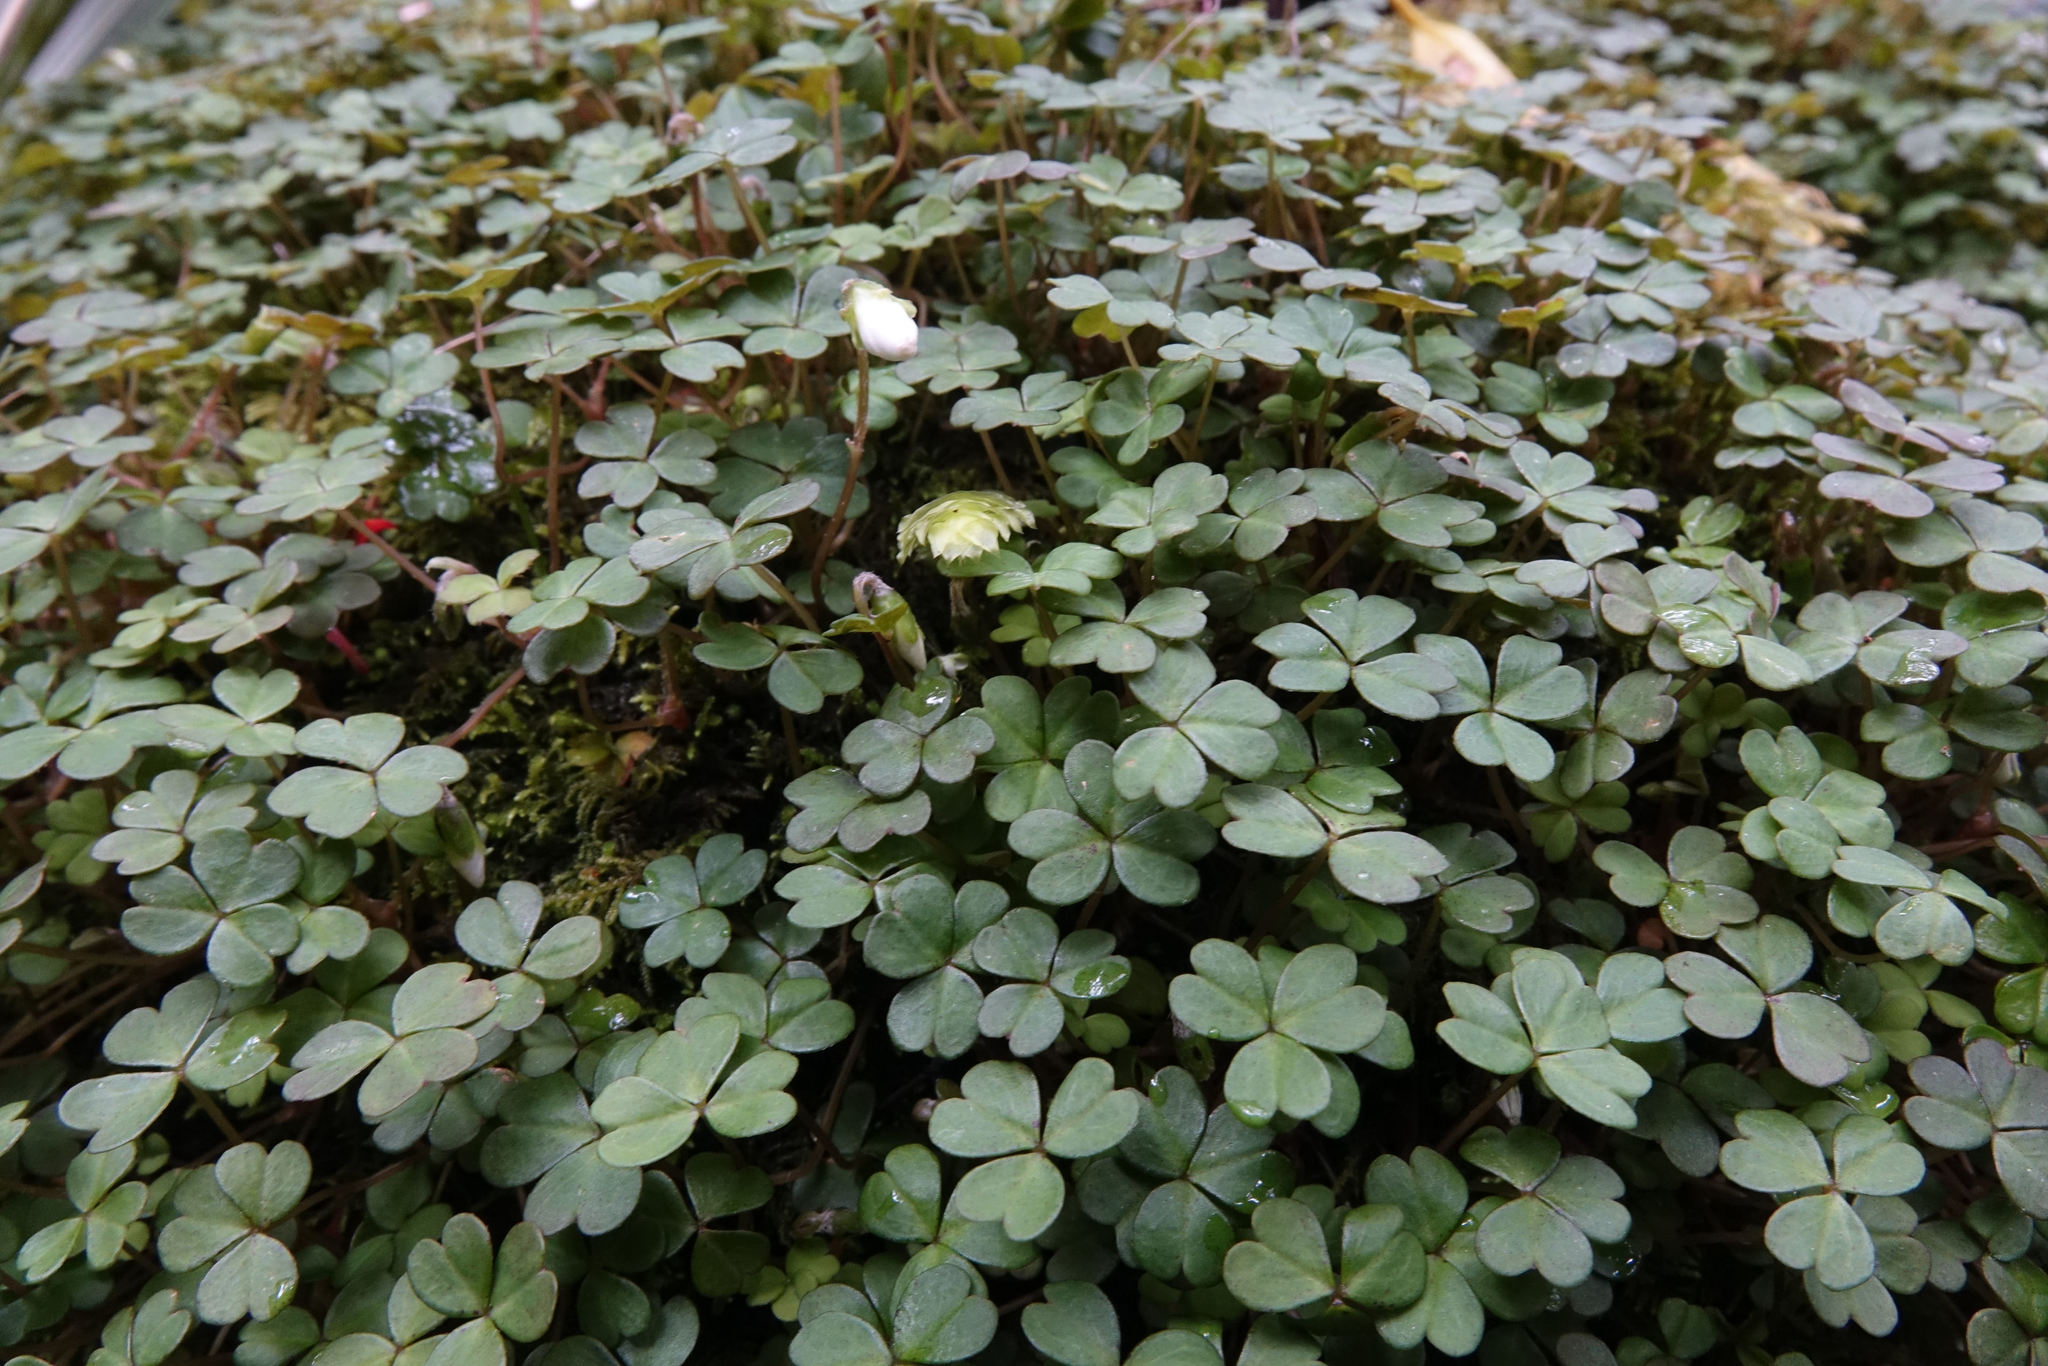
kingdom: Plantae
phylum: Tracheophyta
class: Magnoliopsida
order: Oxalidales
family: Oxalidaceae
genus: Oxalis
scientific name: Oxalis magellanica
